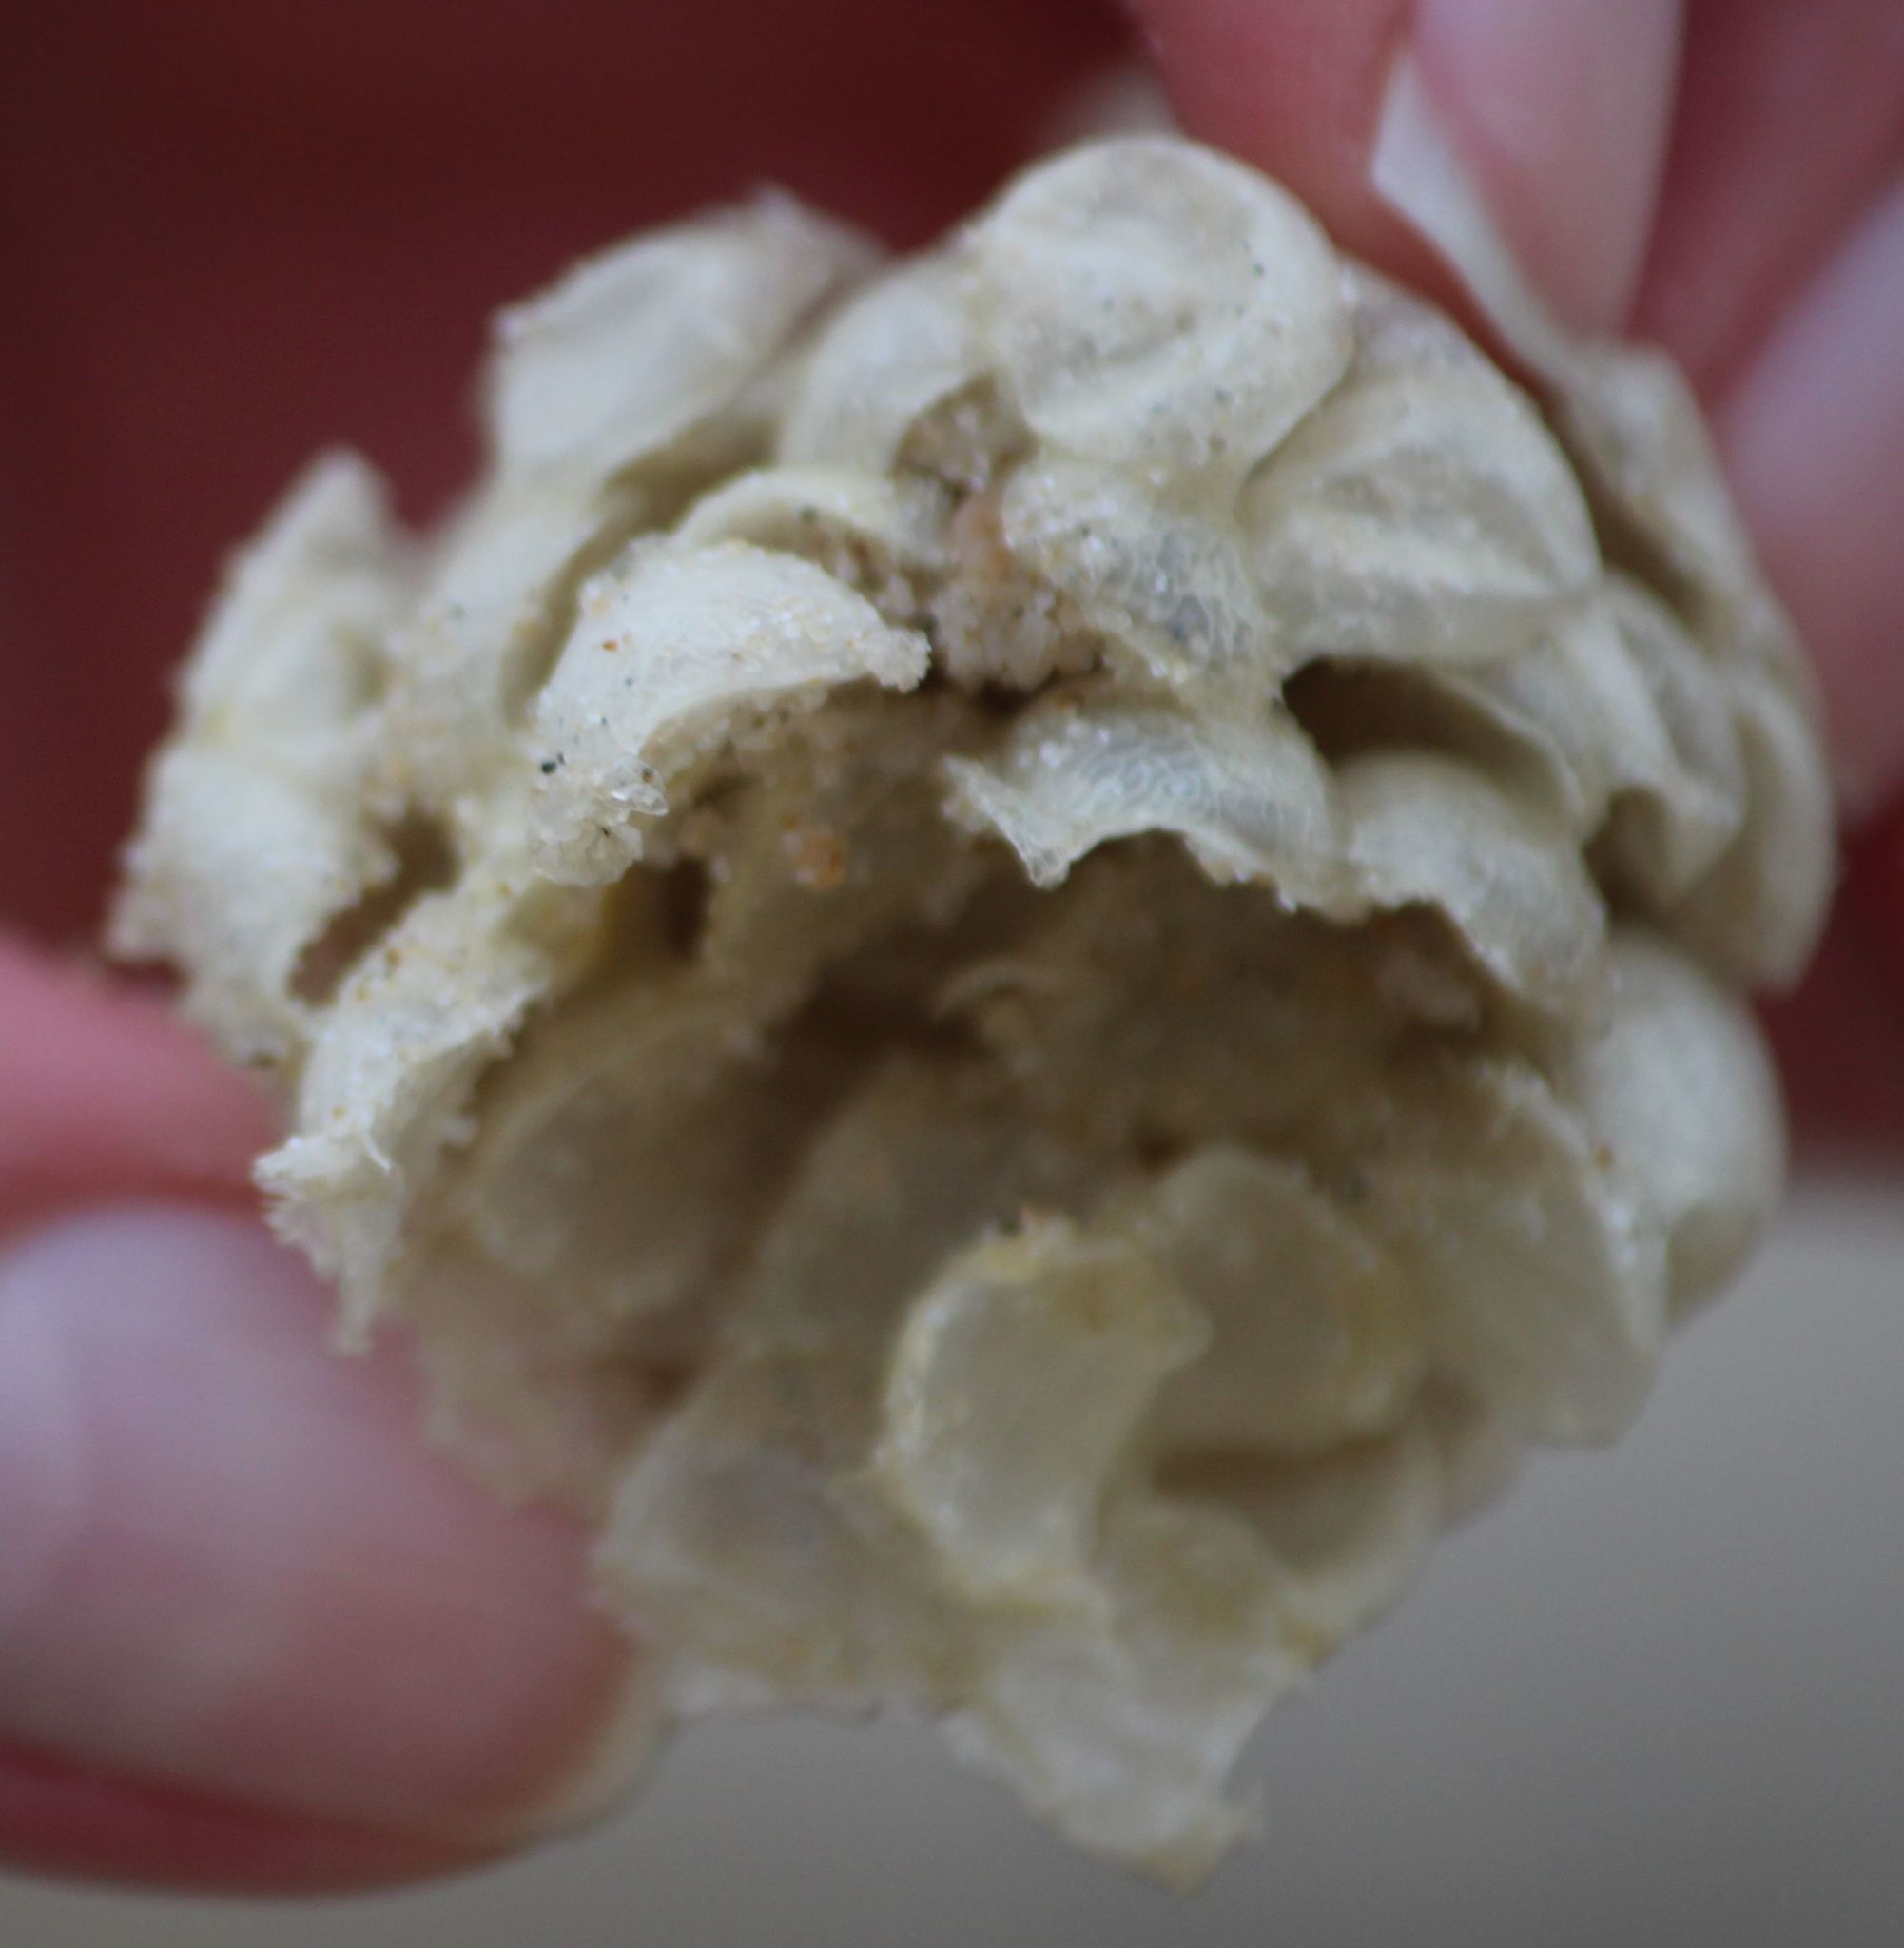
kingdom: Animalia
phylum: Mollusca
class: Gastropoda
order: Neogastropoda
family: Buccinidae
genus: Buccinum
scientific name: Buccinum undatum
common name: Common whelk
